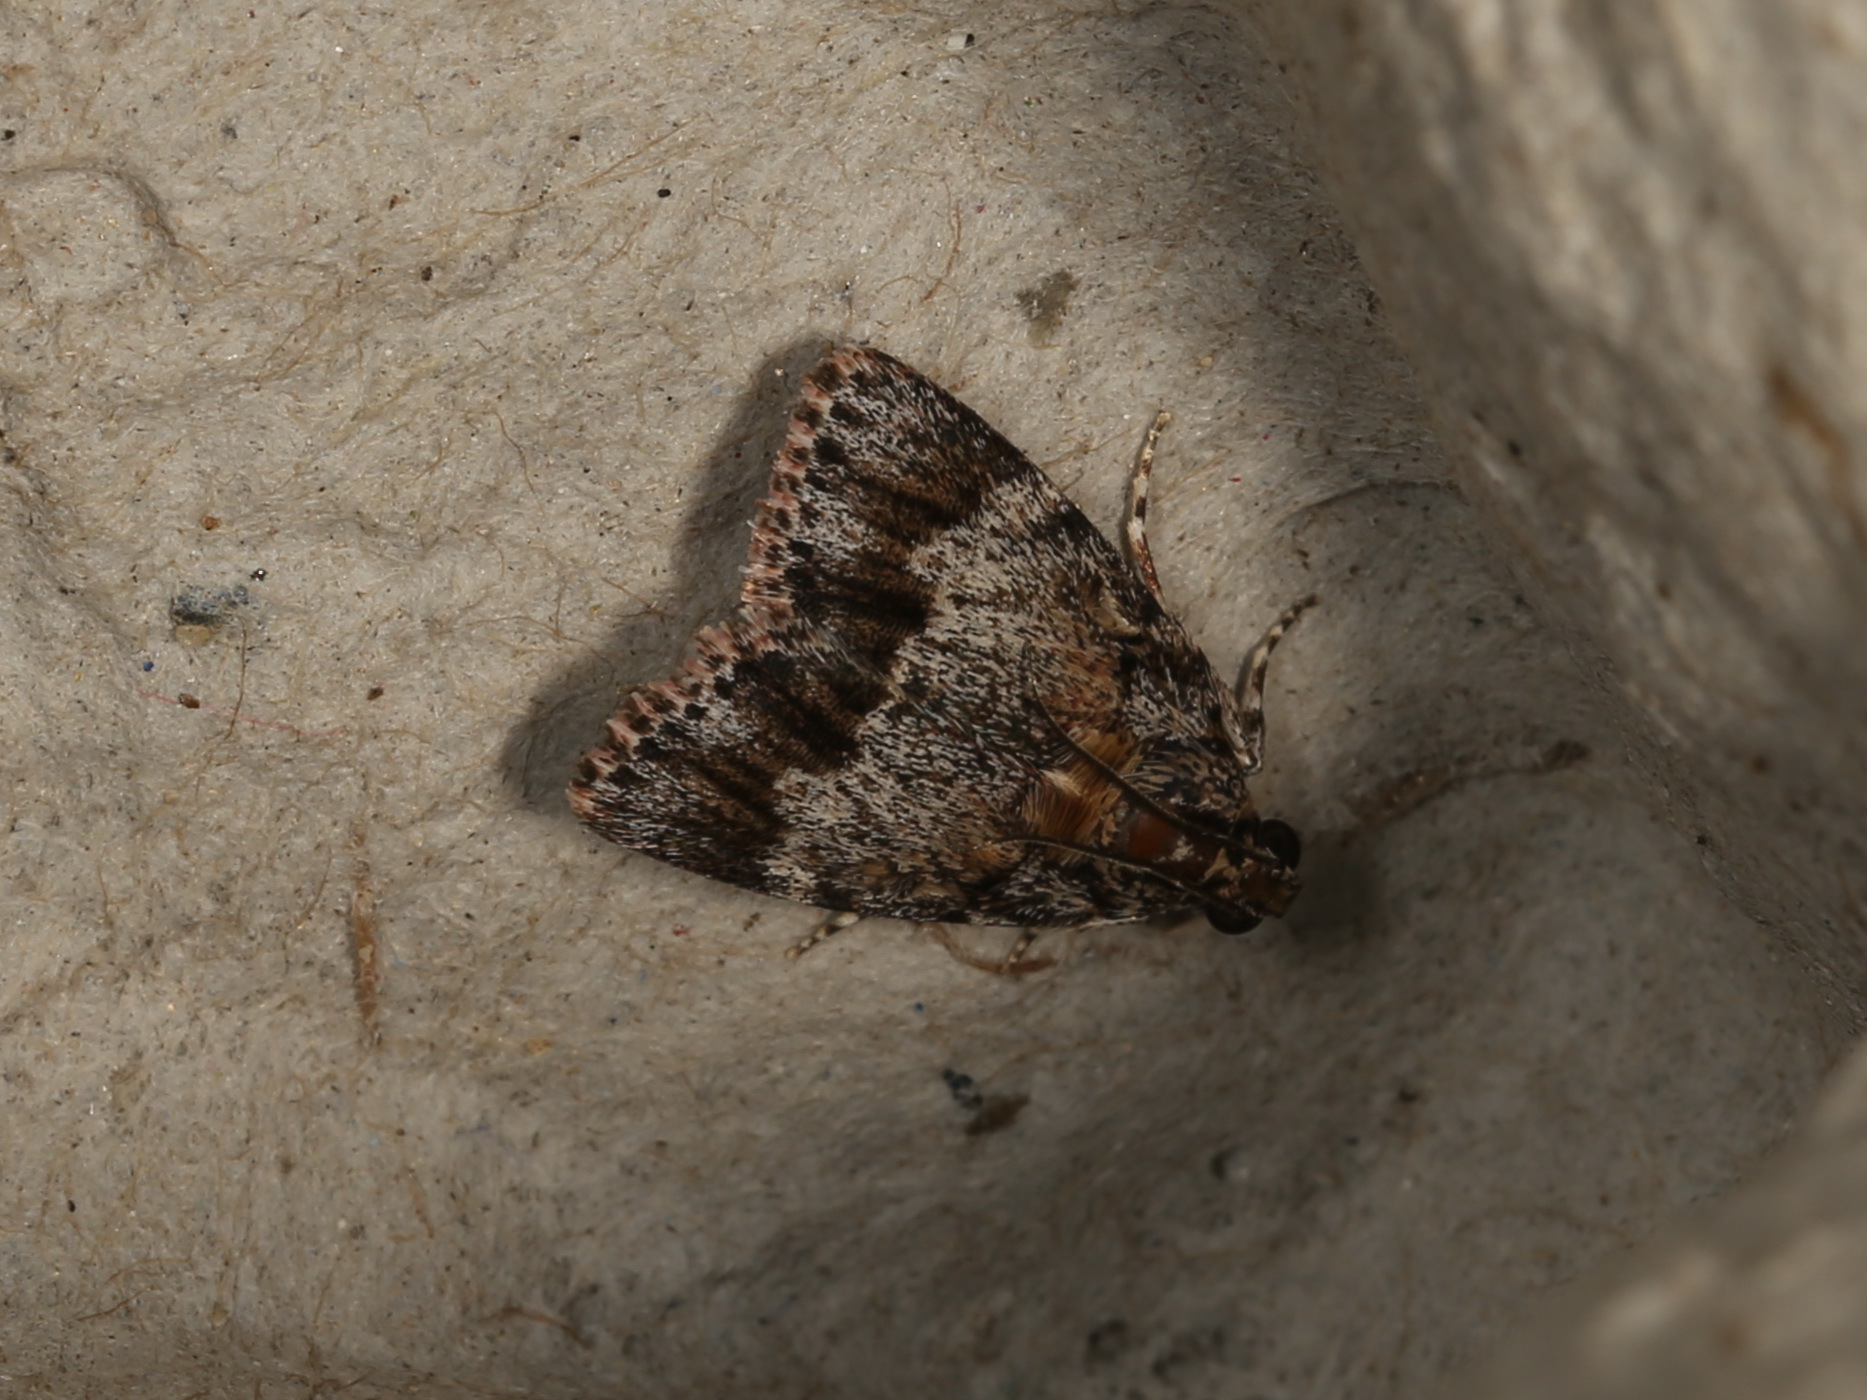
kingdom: Animalia
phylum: Arthropoda
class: Insecta
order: Lepidoptera
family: Pyralidae
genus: Spectrotrota
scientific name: Spectrotrota fimbrialis
